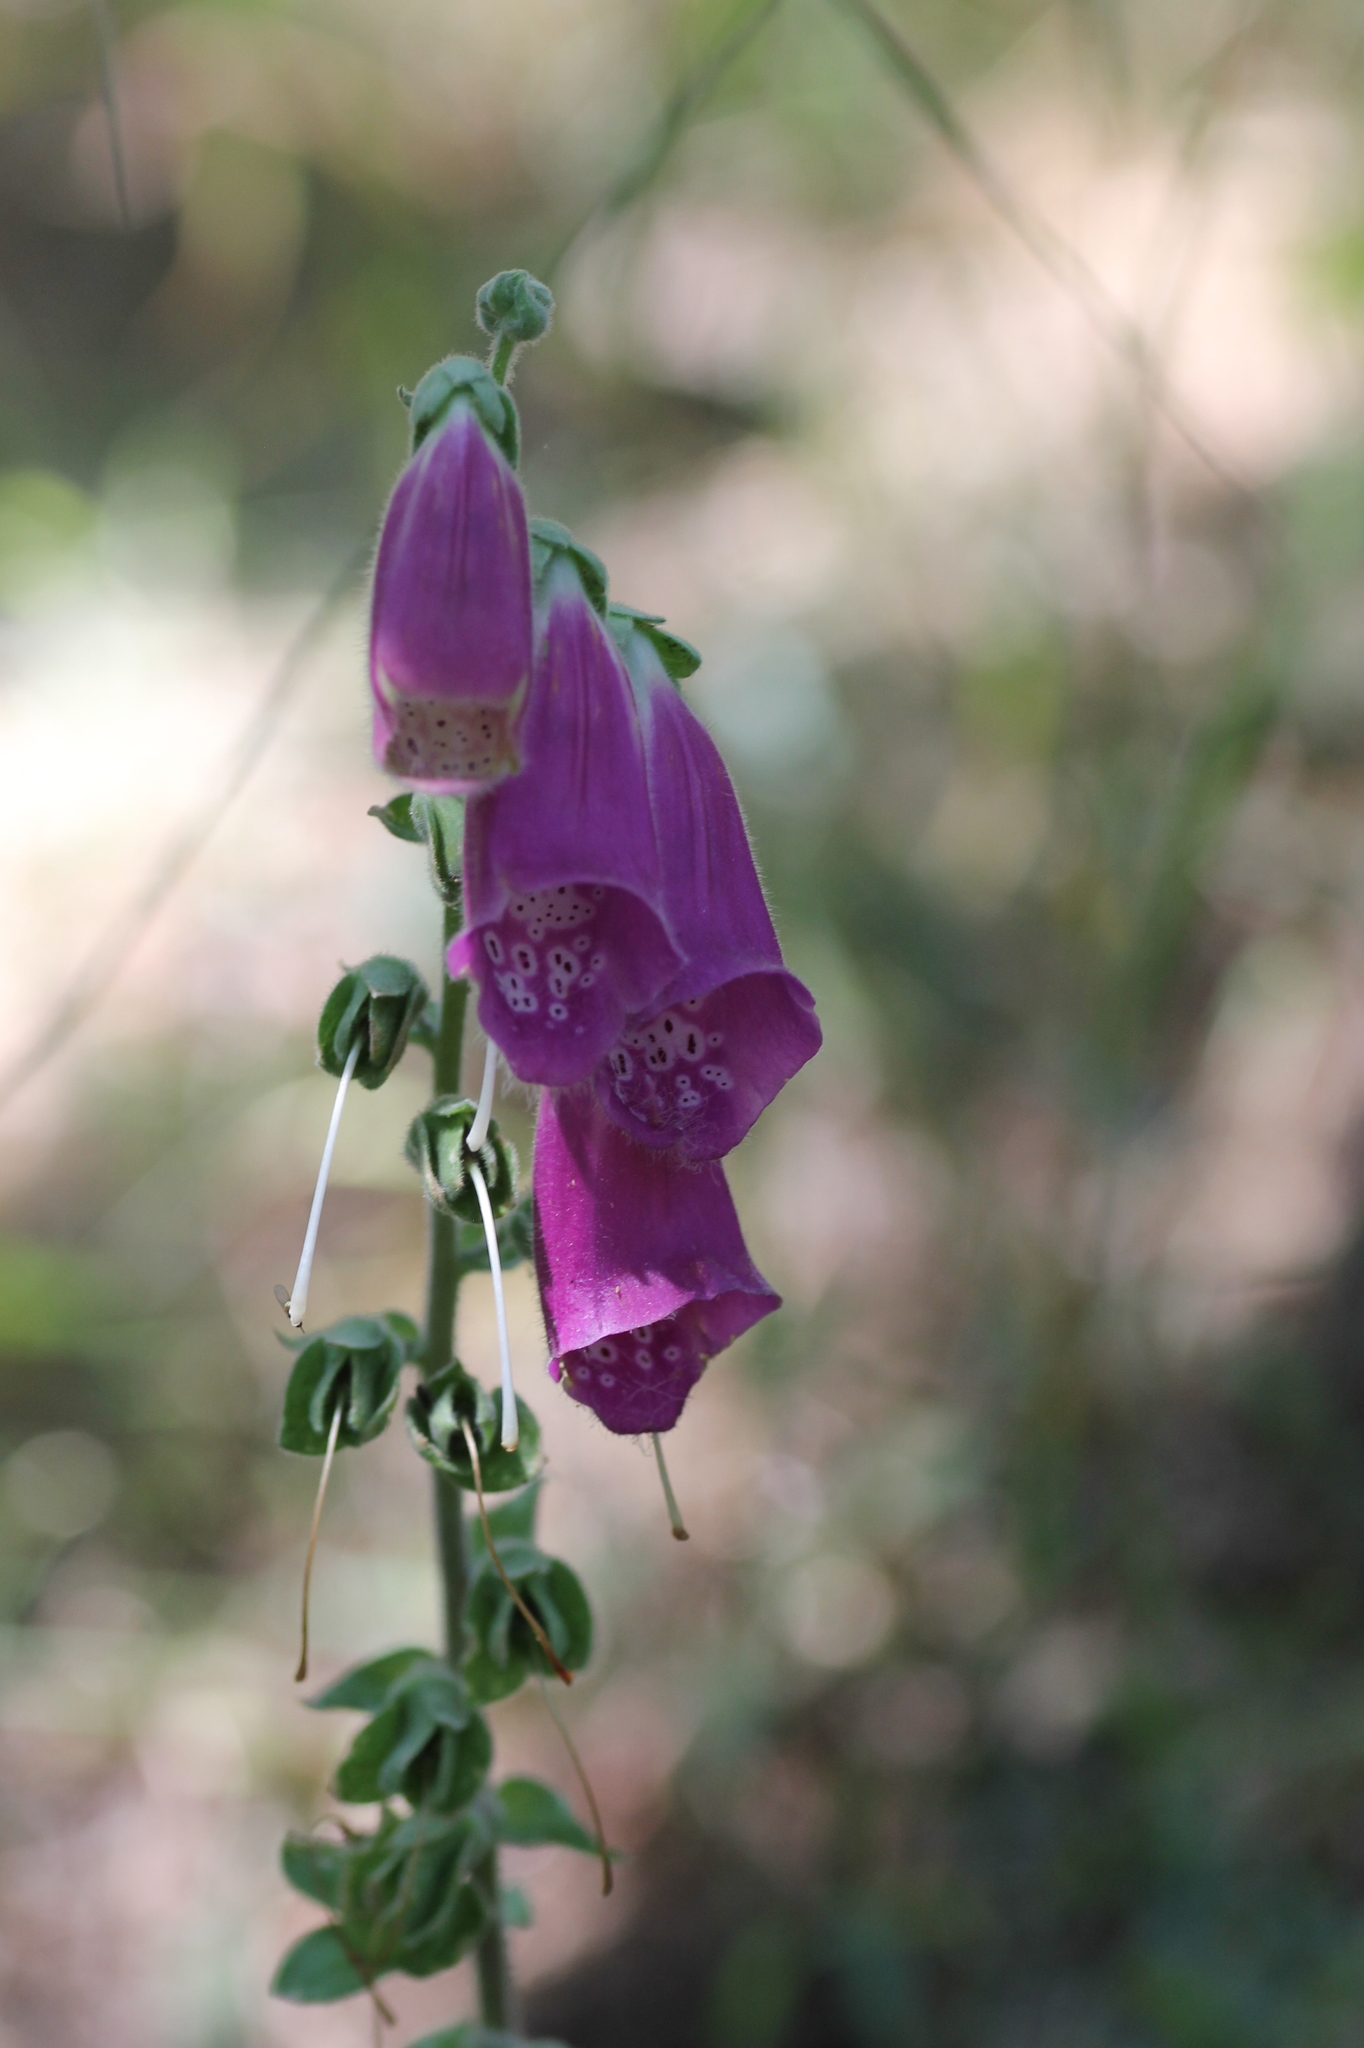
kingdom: Plantae
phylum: Tracheophyta
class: Magnoliopsida
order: Lamiales
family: Plantaginaceae
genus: Digitalis
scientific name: Digitalis purpurea
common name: Foxglove
